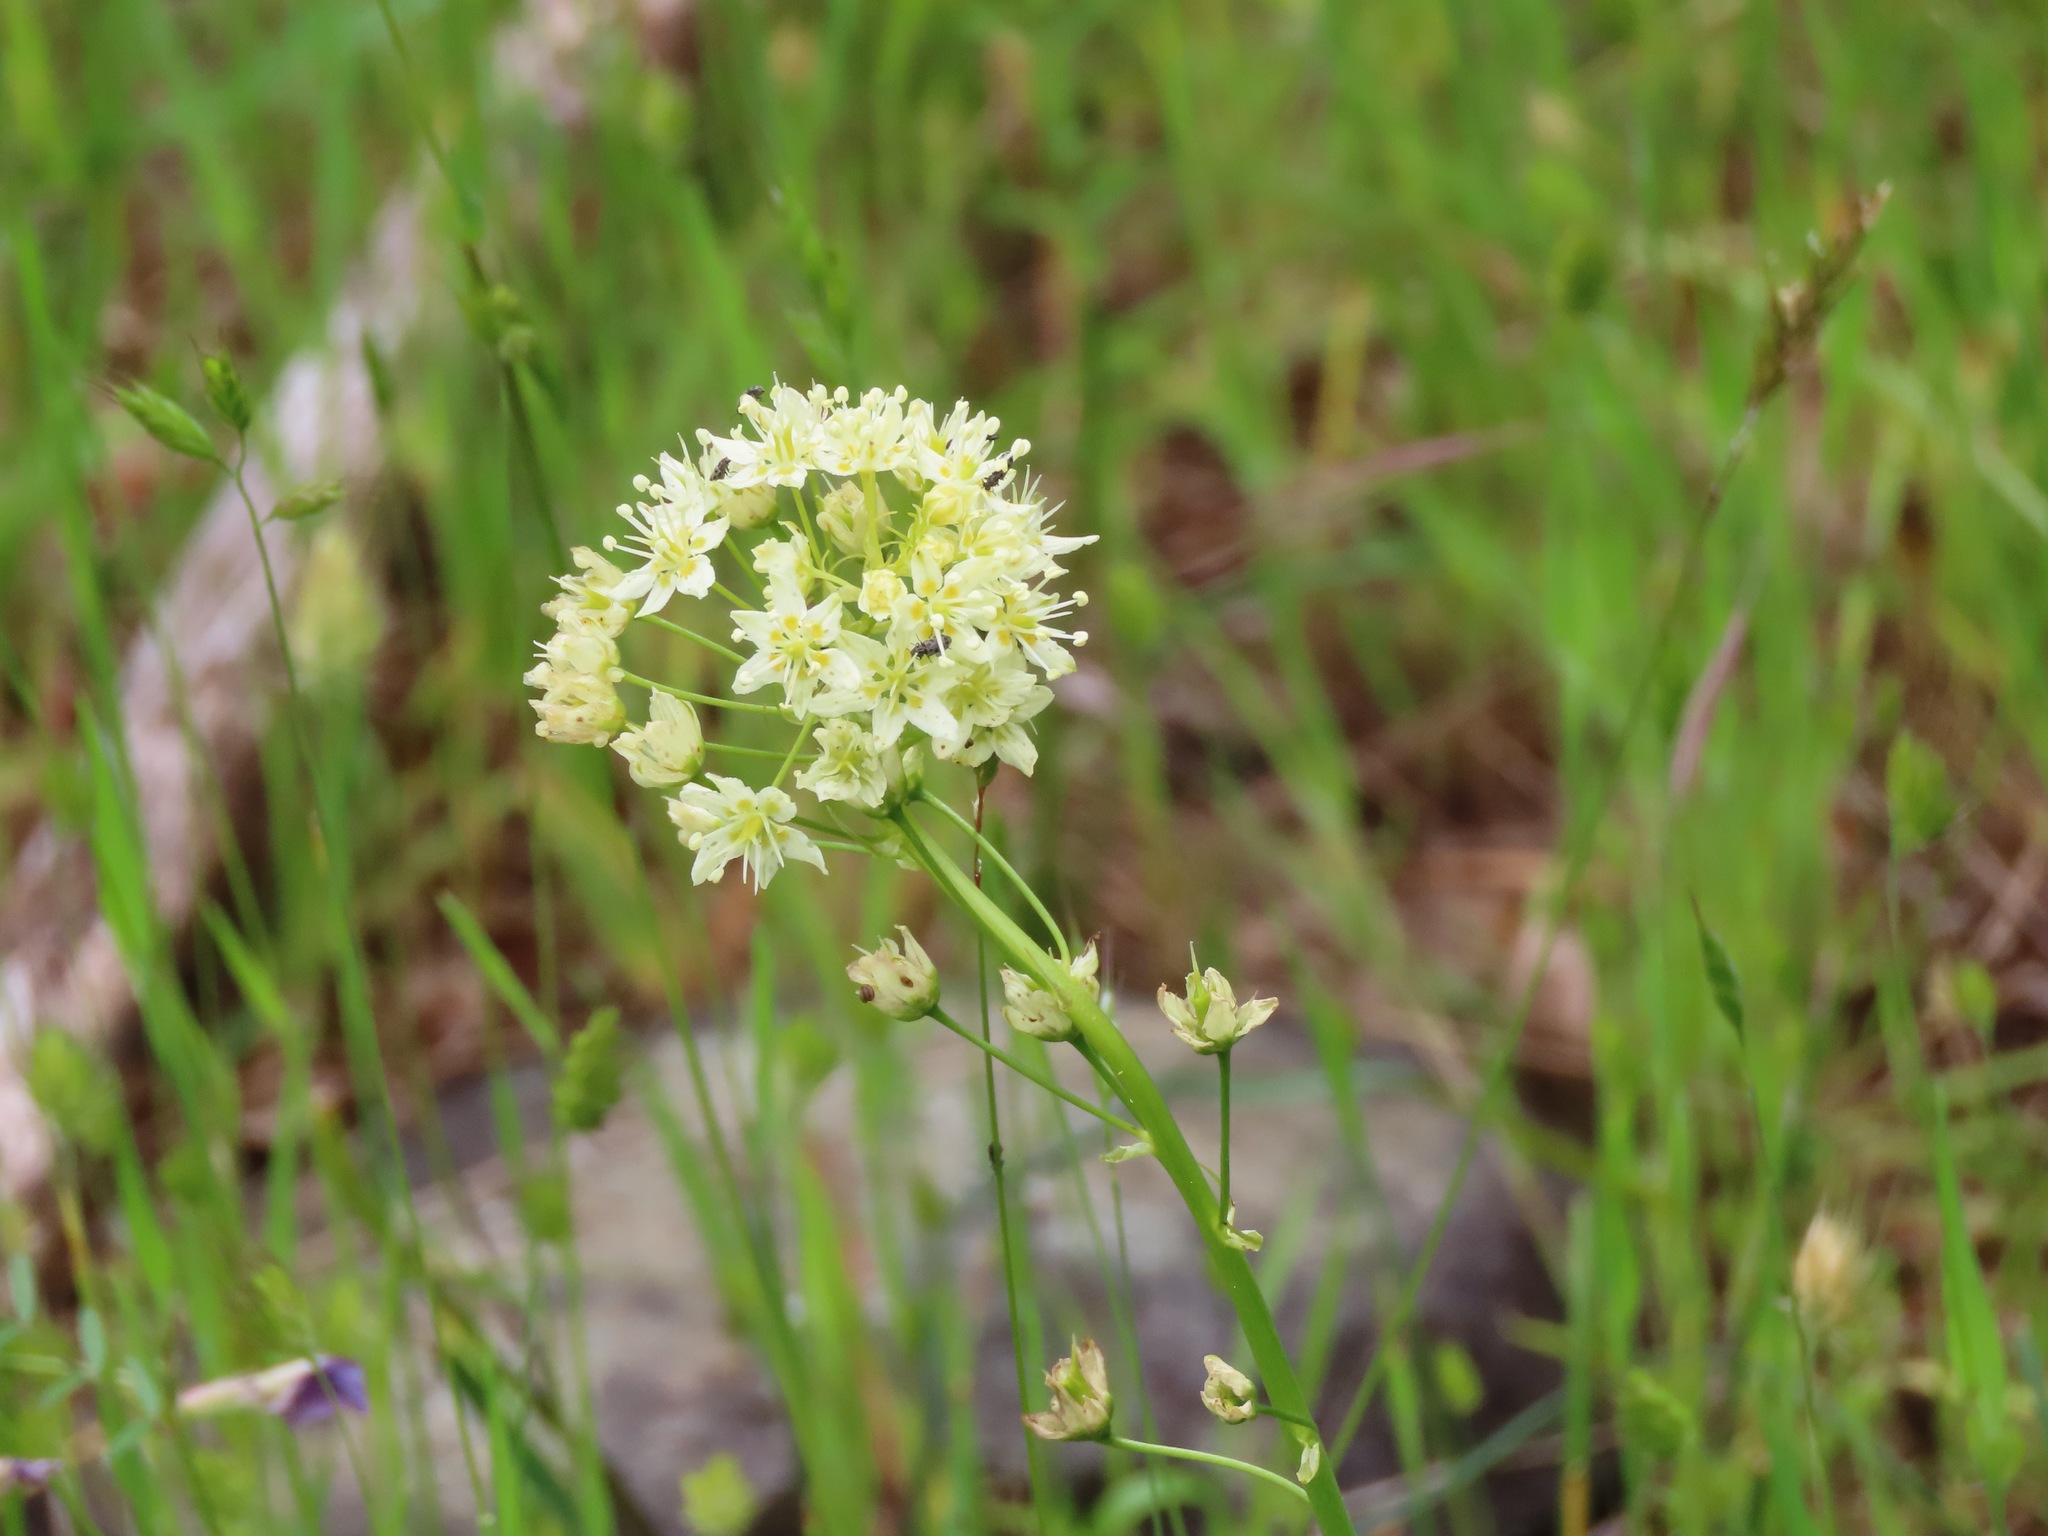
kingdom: Plantae
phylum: Tracheophyta
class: Liliopsida
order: Liliales
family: Melanthiaceae
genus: Toxicoscordion
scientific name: Toxicoscordion venenosum
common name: Meadow death camas
